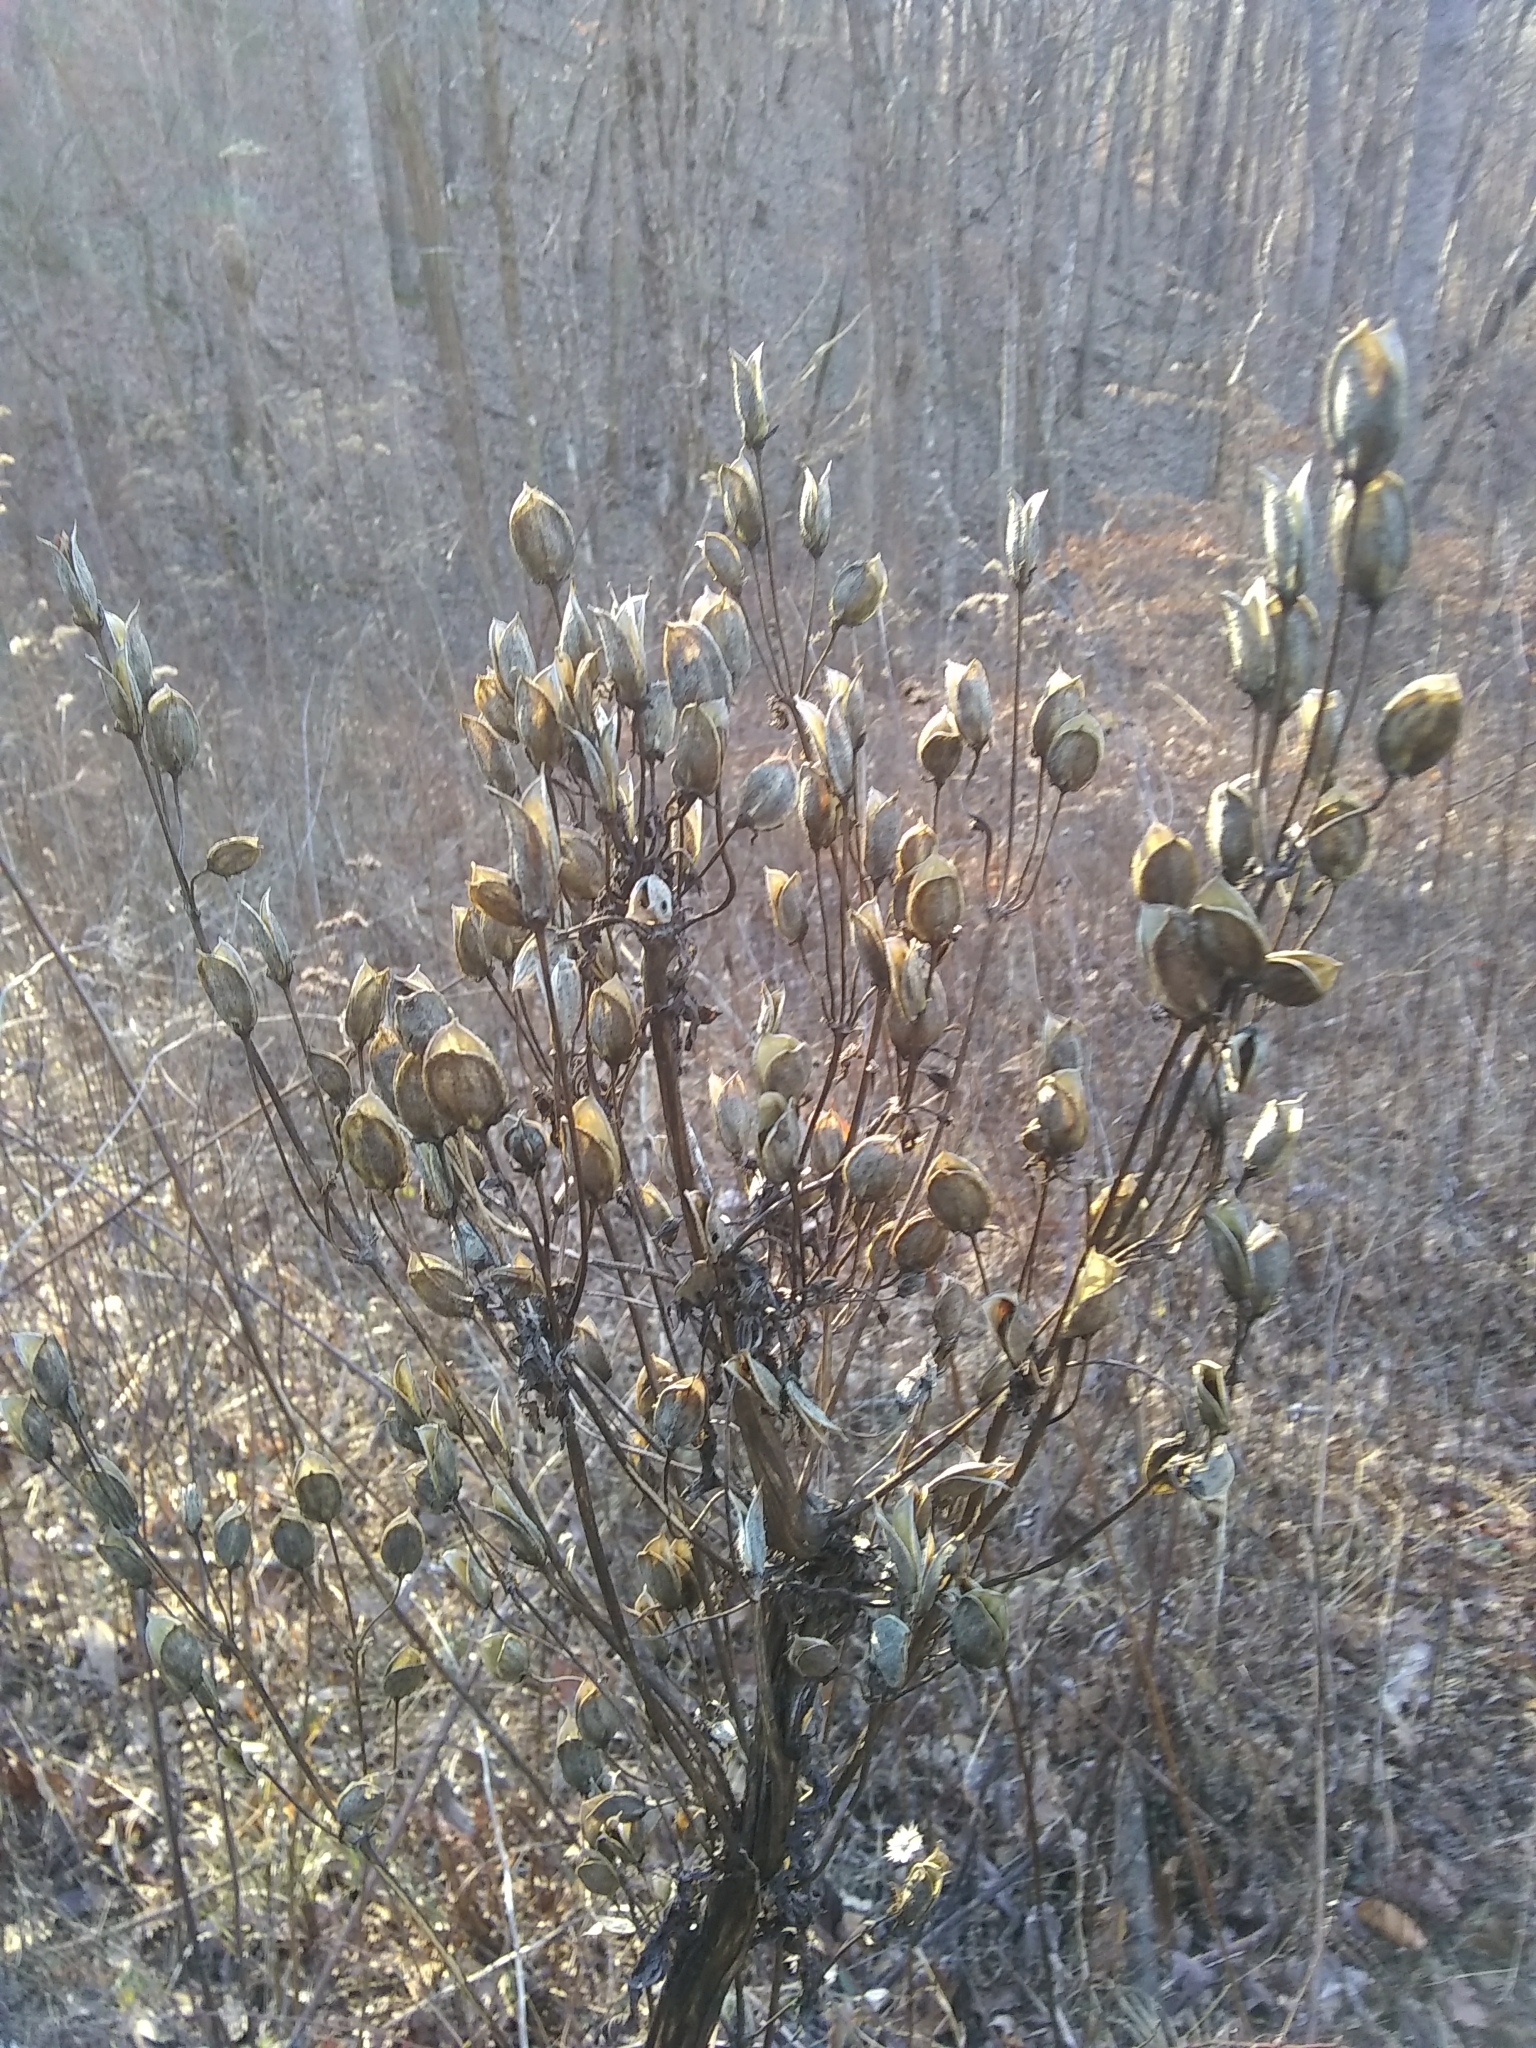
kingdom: Plantae
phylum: Tracheophyta
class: Magnoliopsida
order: Gentianales
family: Gentianaceae
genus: Frasera
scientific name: Frasera caroliniensis
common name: American columbo
